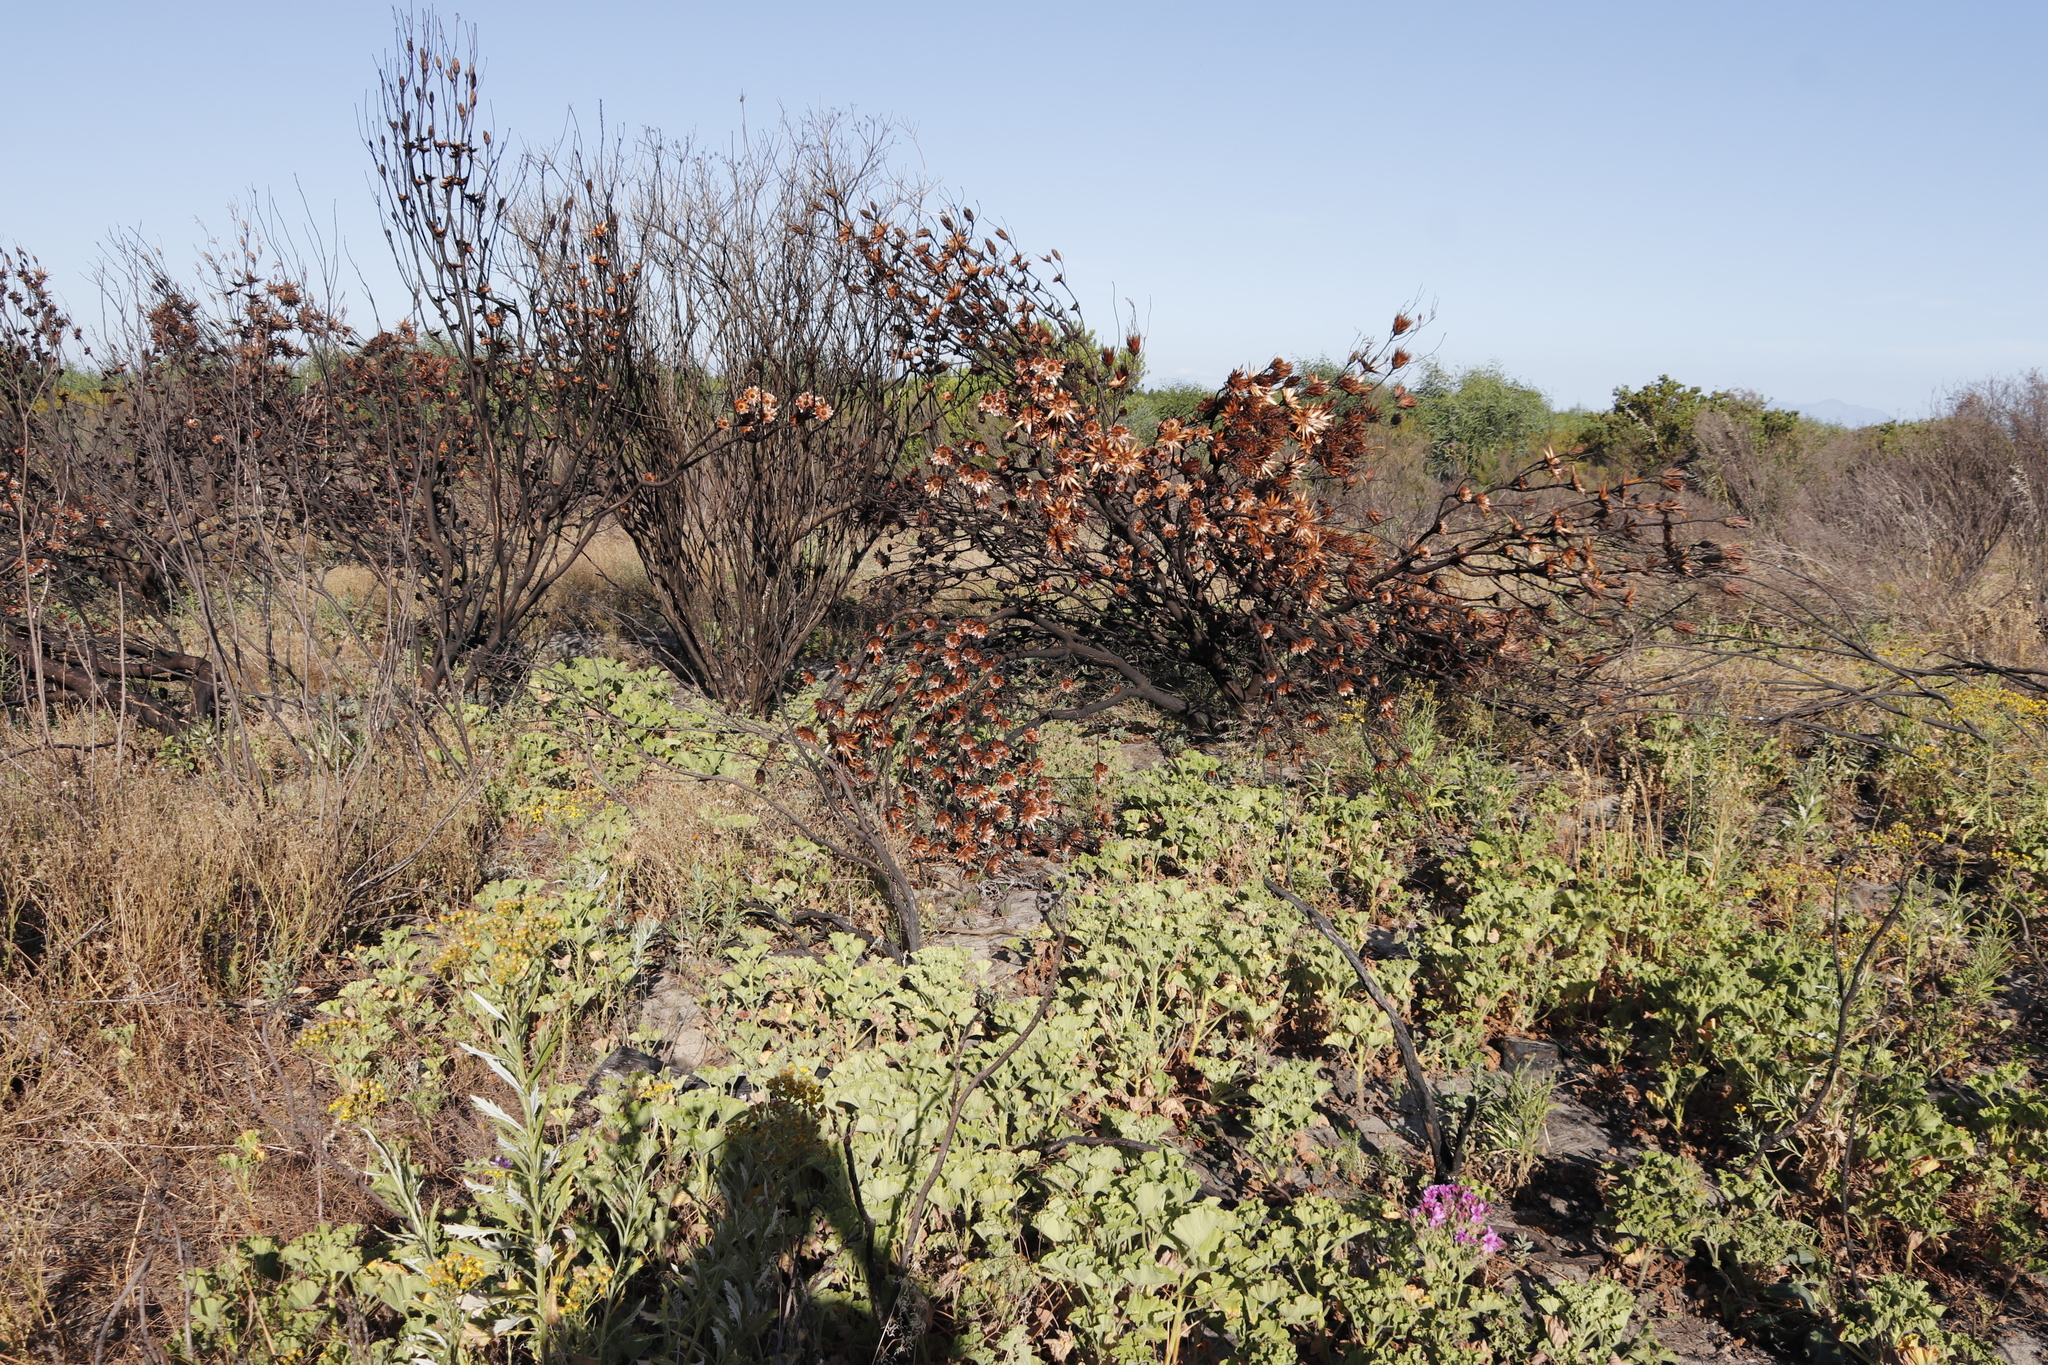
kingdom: Plantae
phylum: Tracheophyta
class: Magnoliopsida
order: Proteales
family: Proteaceae
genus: Protea
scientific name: Protea repens
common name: Sugarbush
